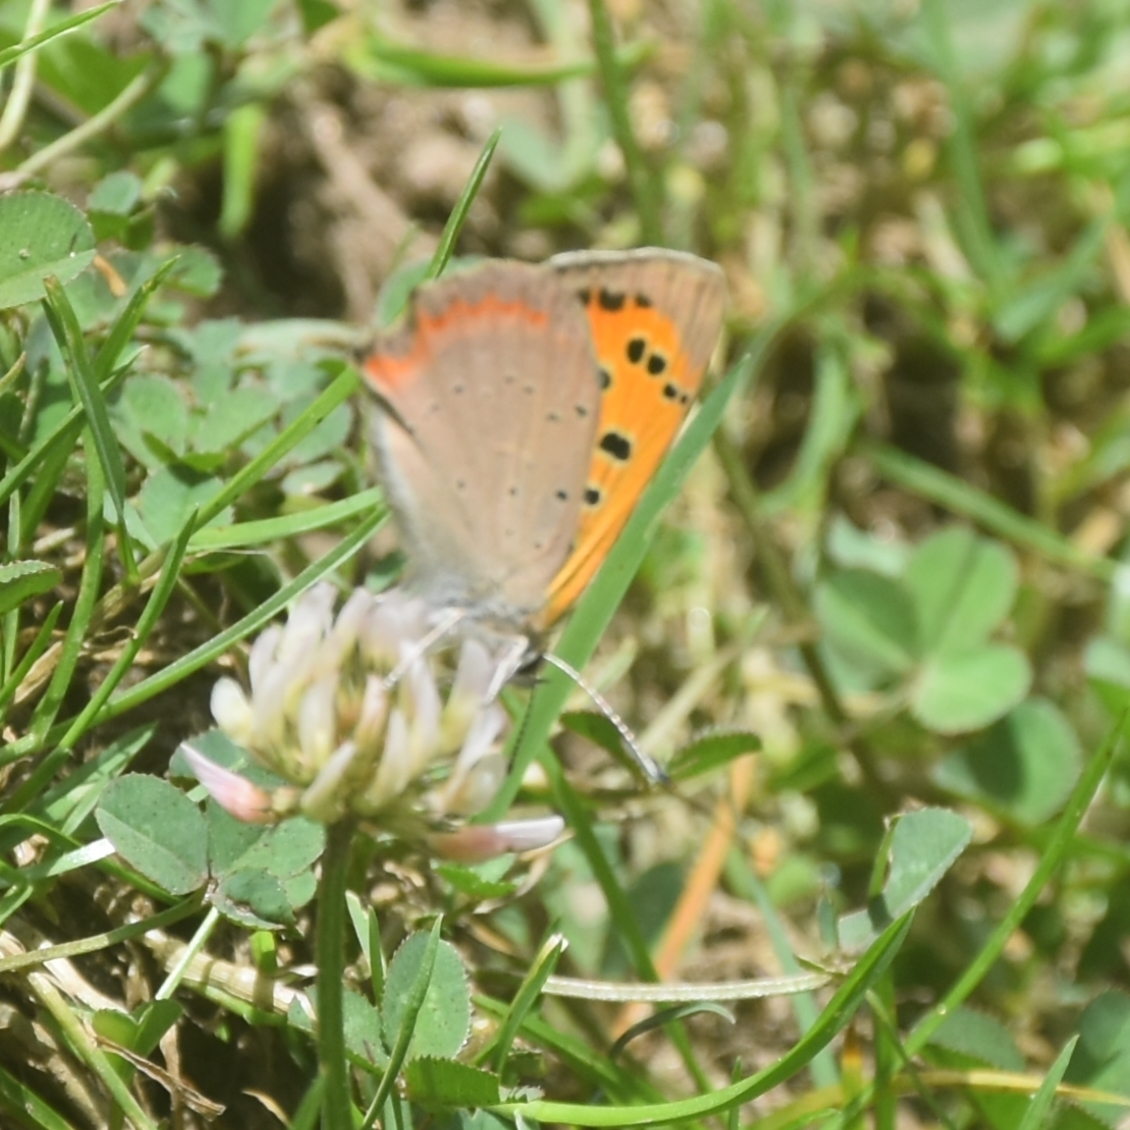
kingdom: Animalia
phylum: Arthropoda
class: Insecta
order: Lepidoptera
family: Lycaenidae
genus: Lycaena
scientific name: Lycaena phlaeas
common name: Small copper
